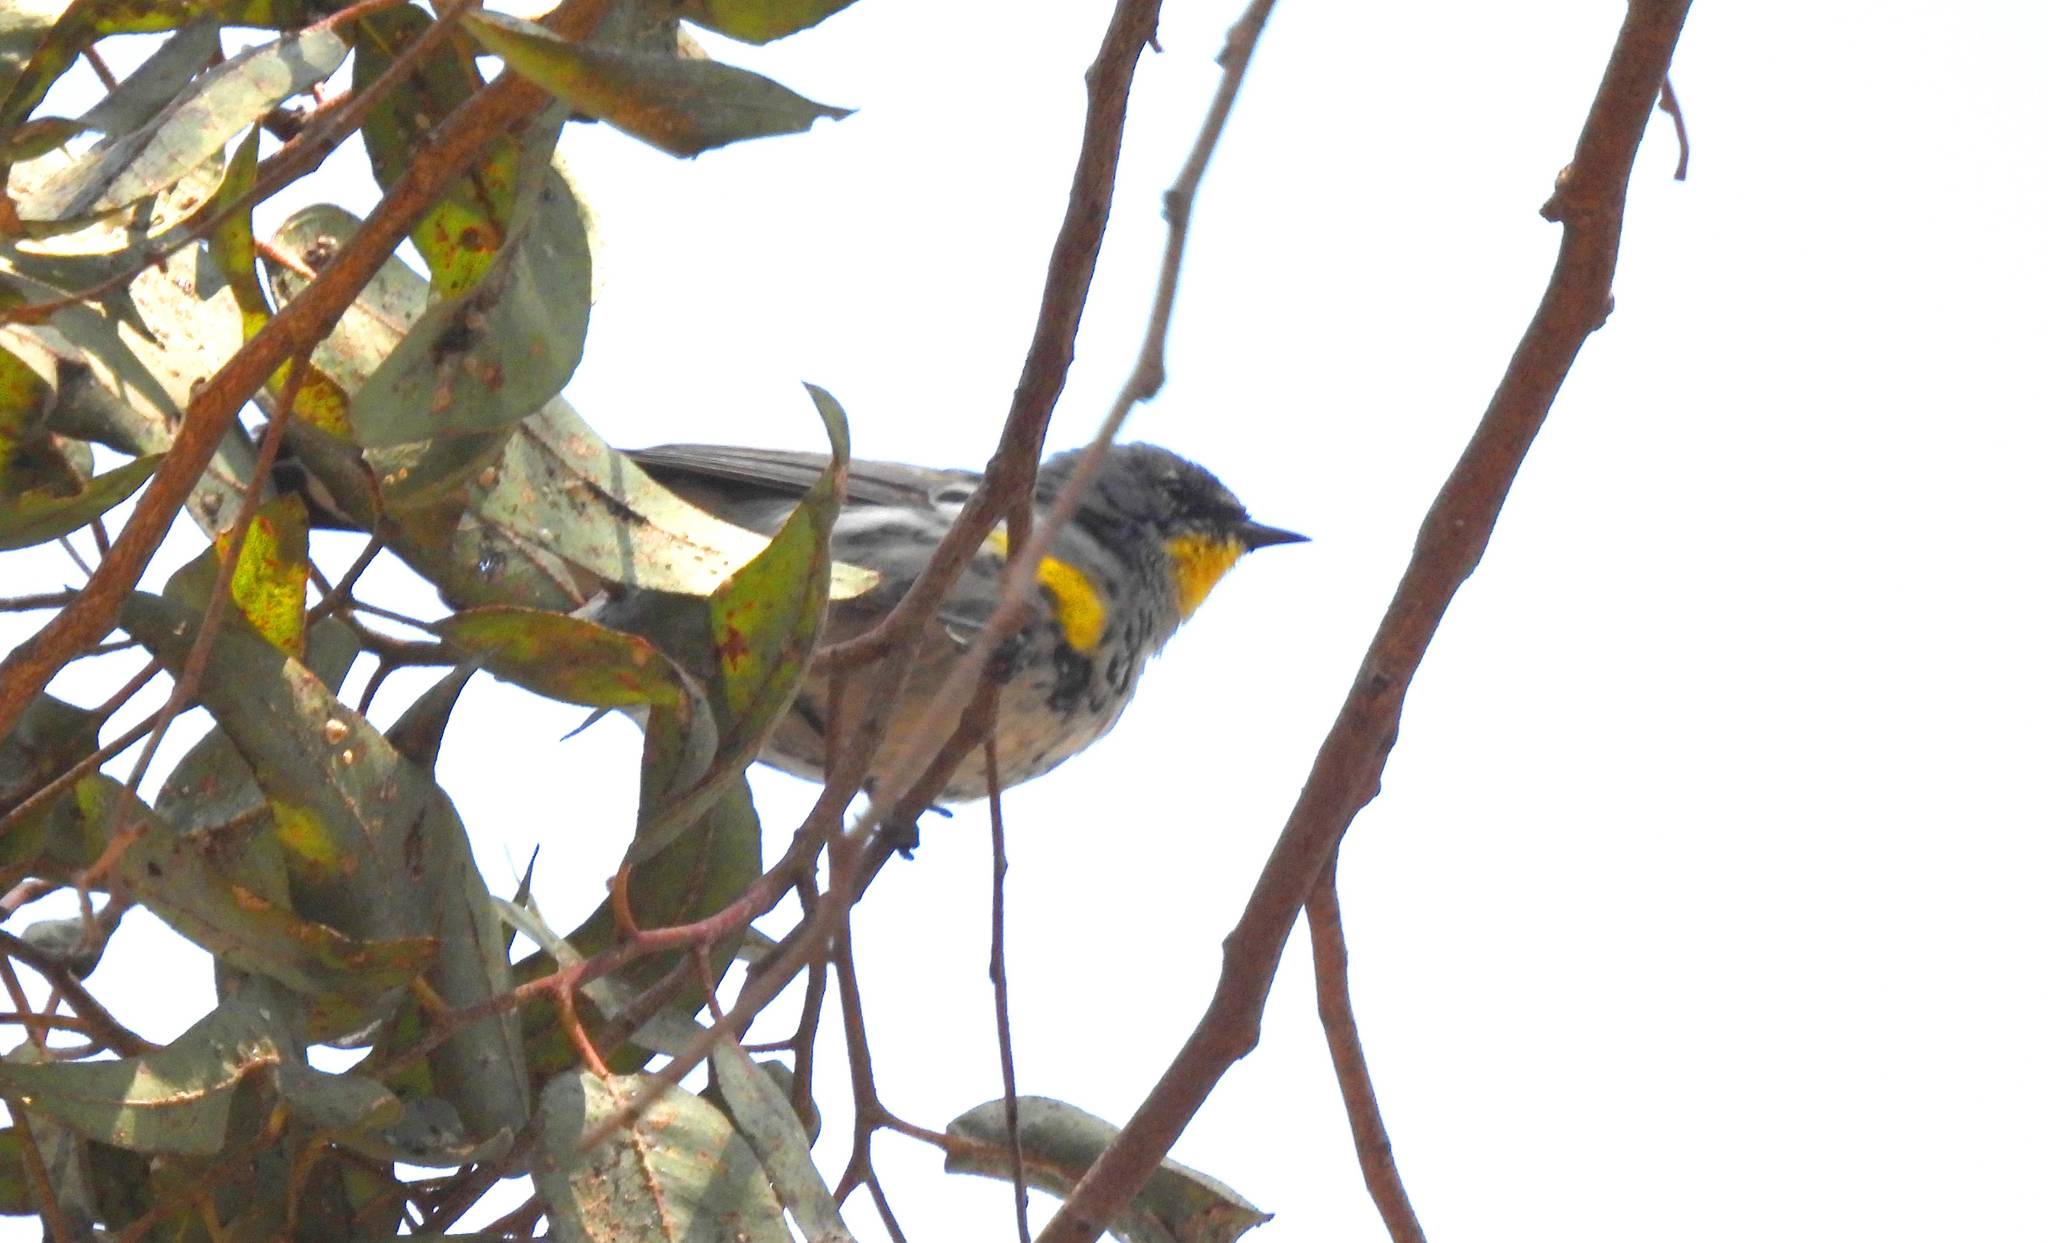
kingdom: Animalia
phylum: Chordata
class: Aves
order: Passeriformes
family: Parulidae
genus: Setophaga
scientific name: Setophaga coronata
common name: Myrtle warbler
